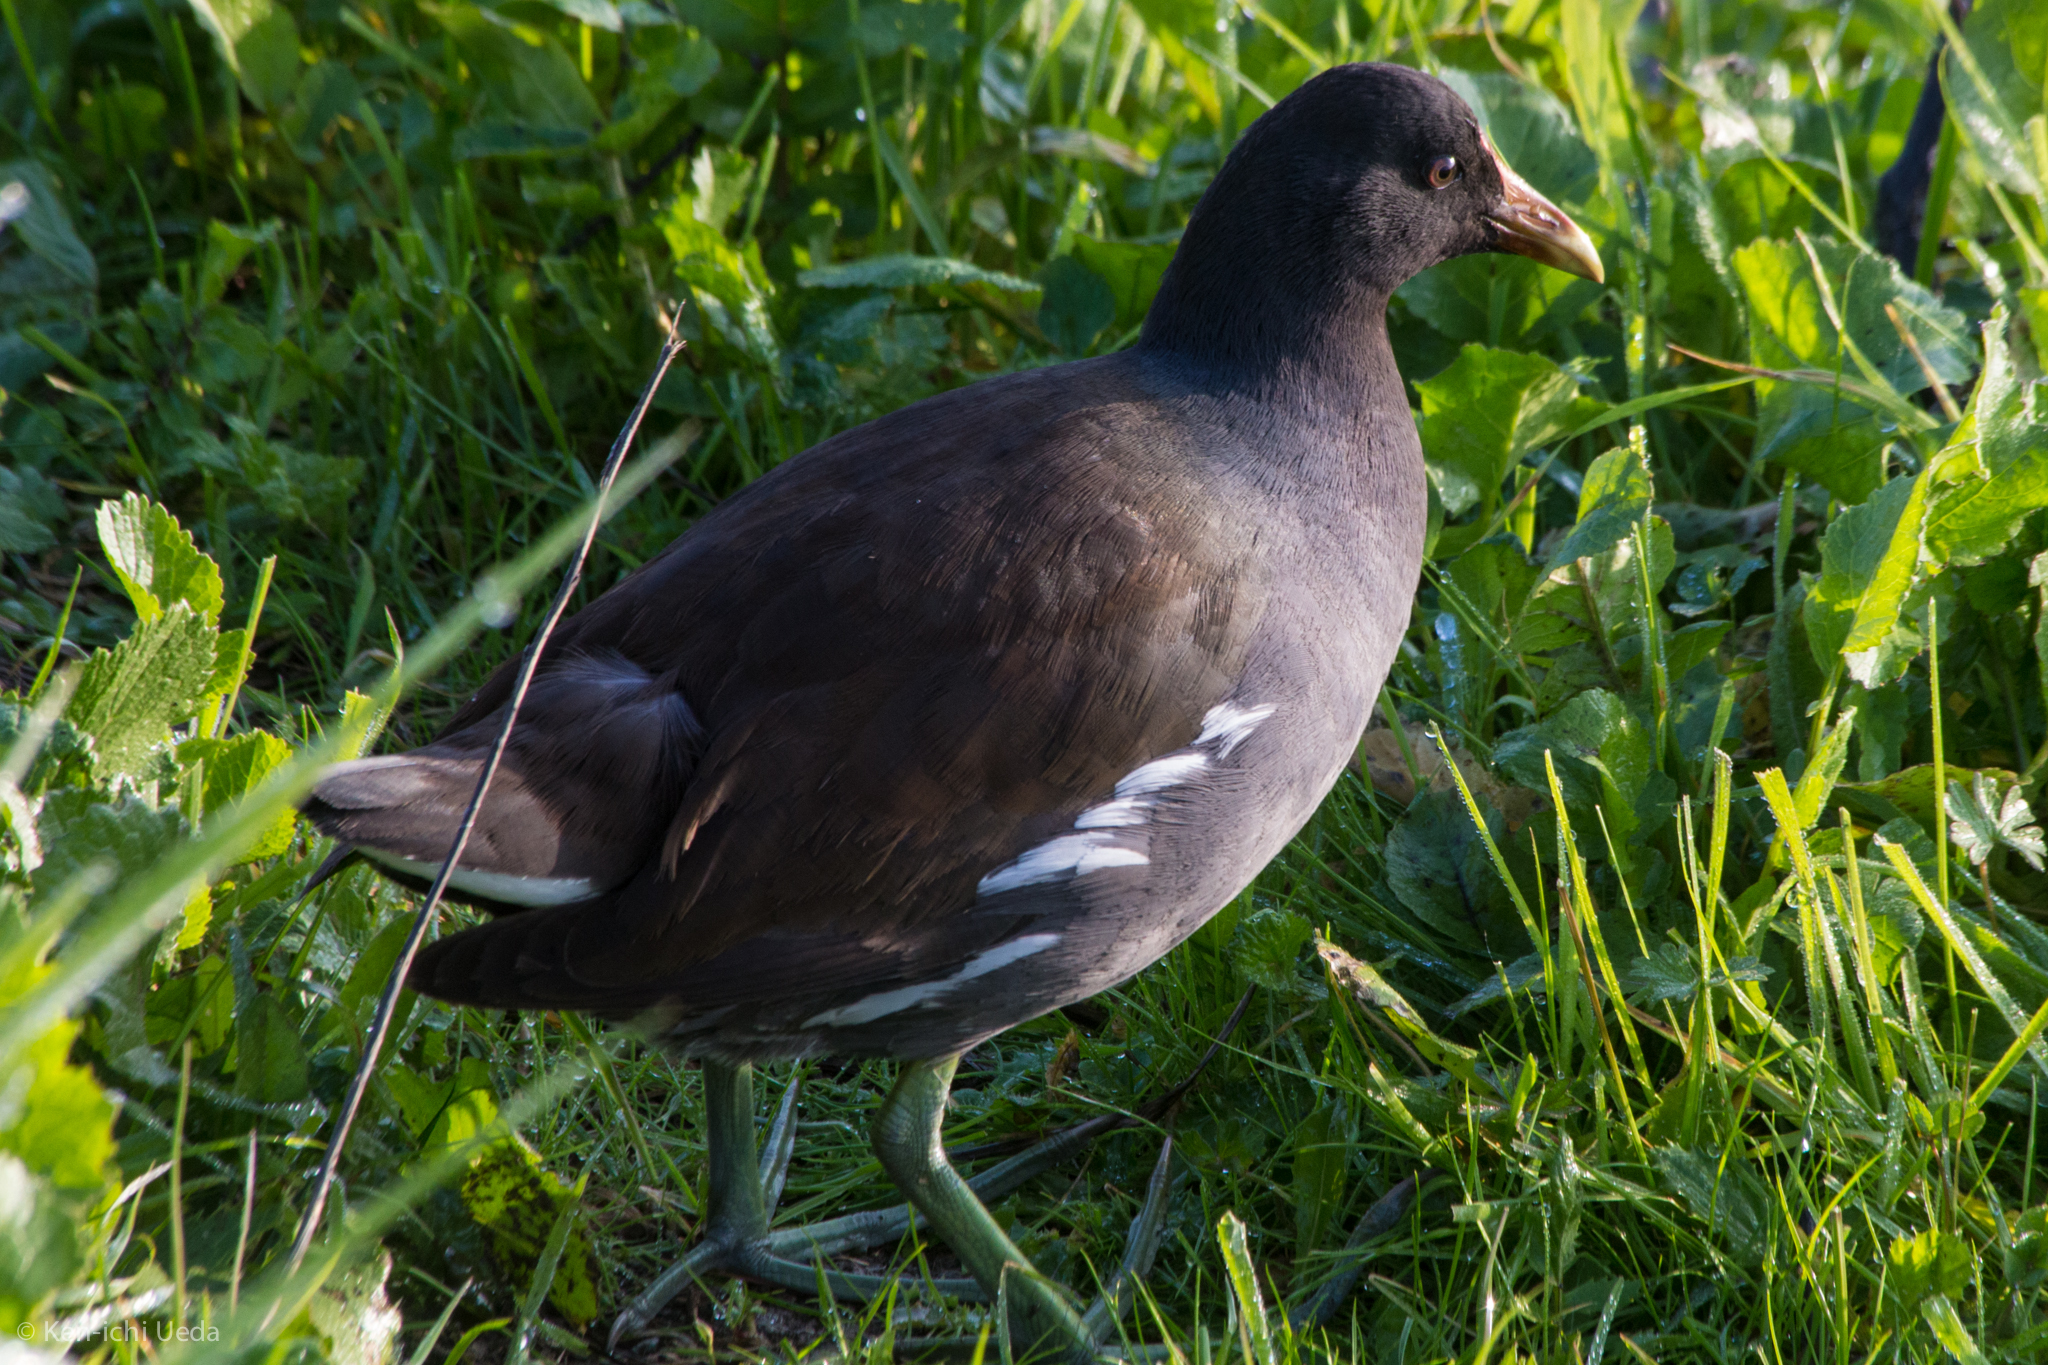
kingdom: Animalia
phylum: Chordata
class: Aves
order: Gruiformes
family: Rallidae
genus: Gallinula
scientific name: Gallinula chloropus
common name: Common moorhen
